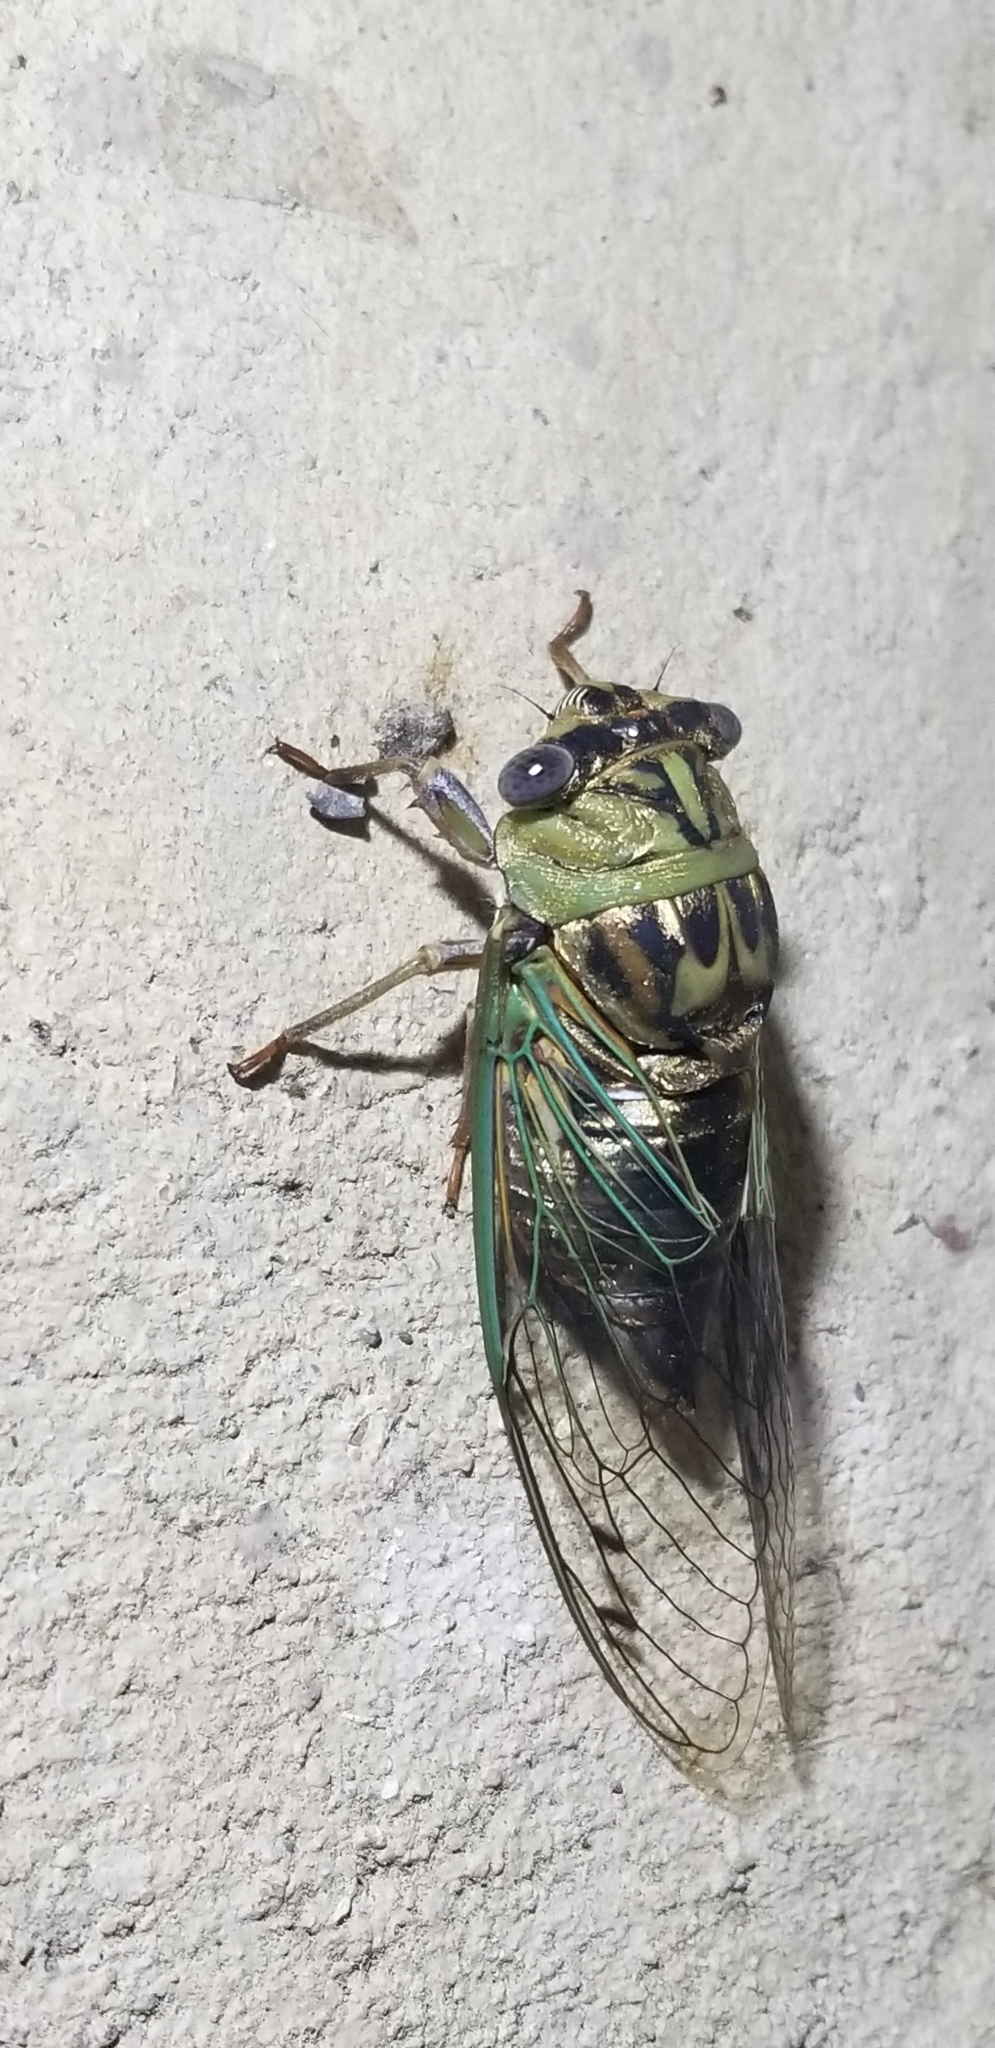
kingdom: Animalia
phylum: Arthropoda
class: Insecta
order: Hemiptera
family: Cicadidae
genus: Megatibicen
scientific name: Megatibicen resh
